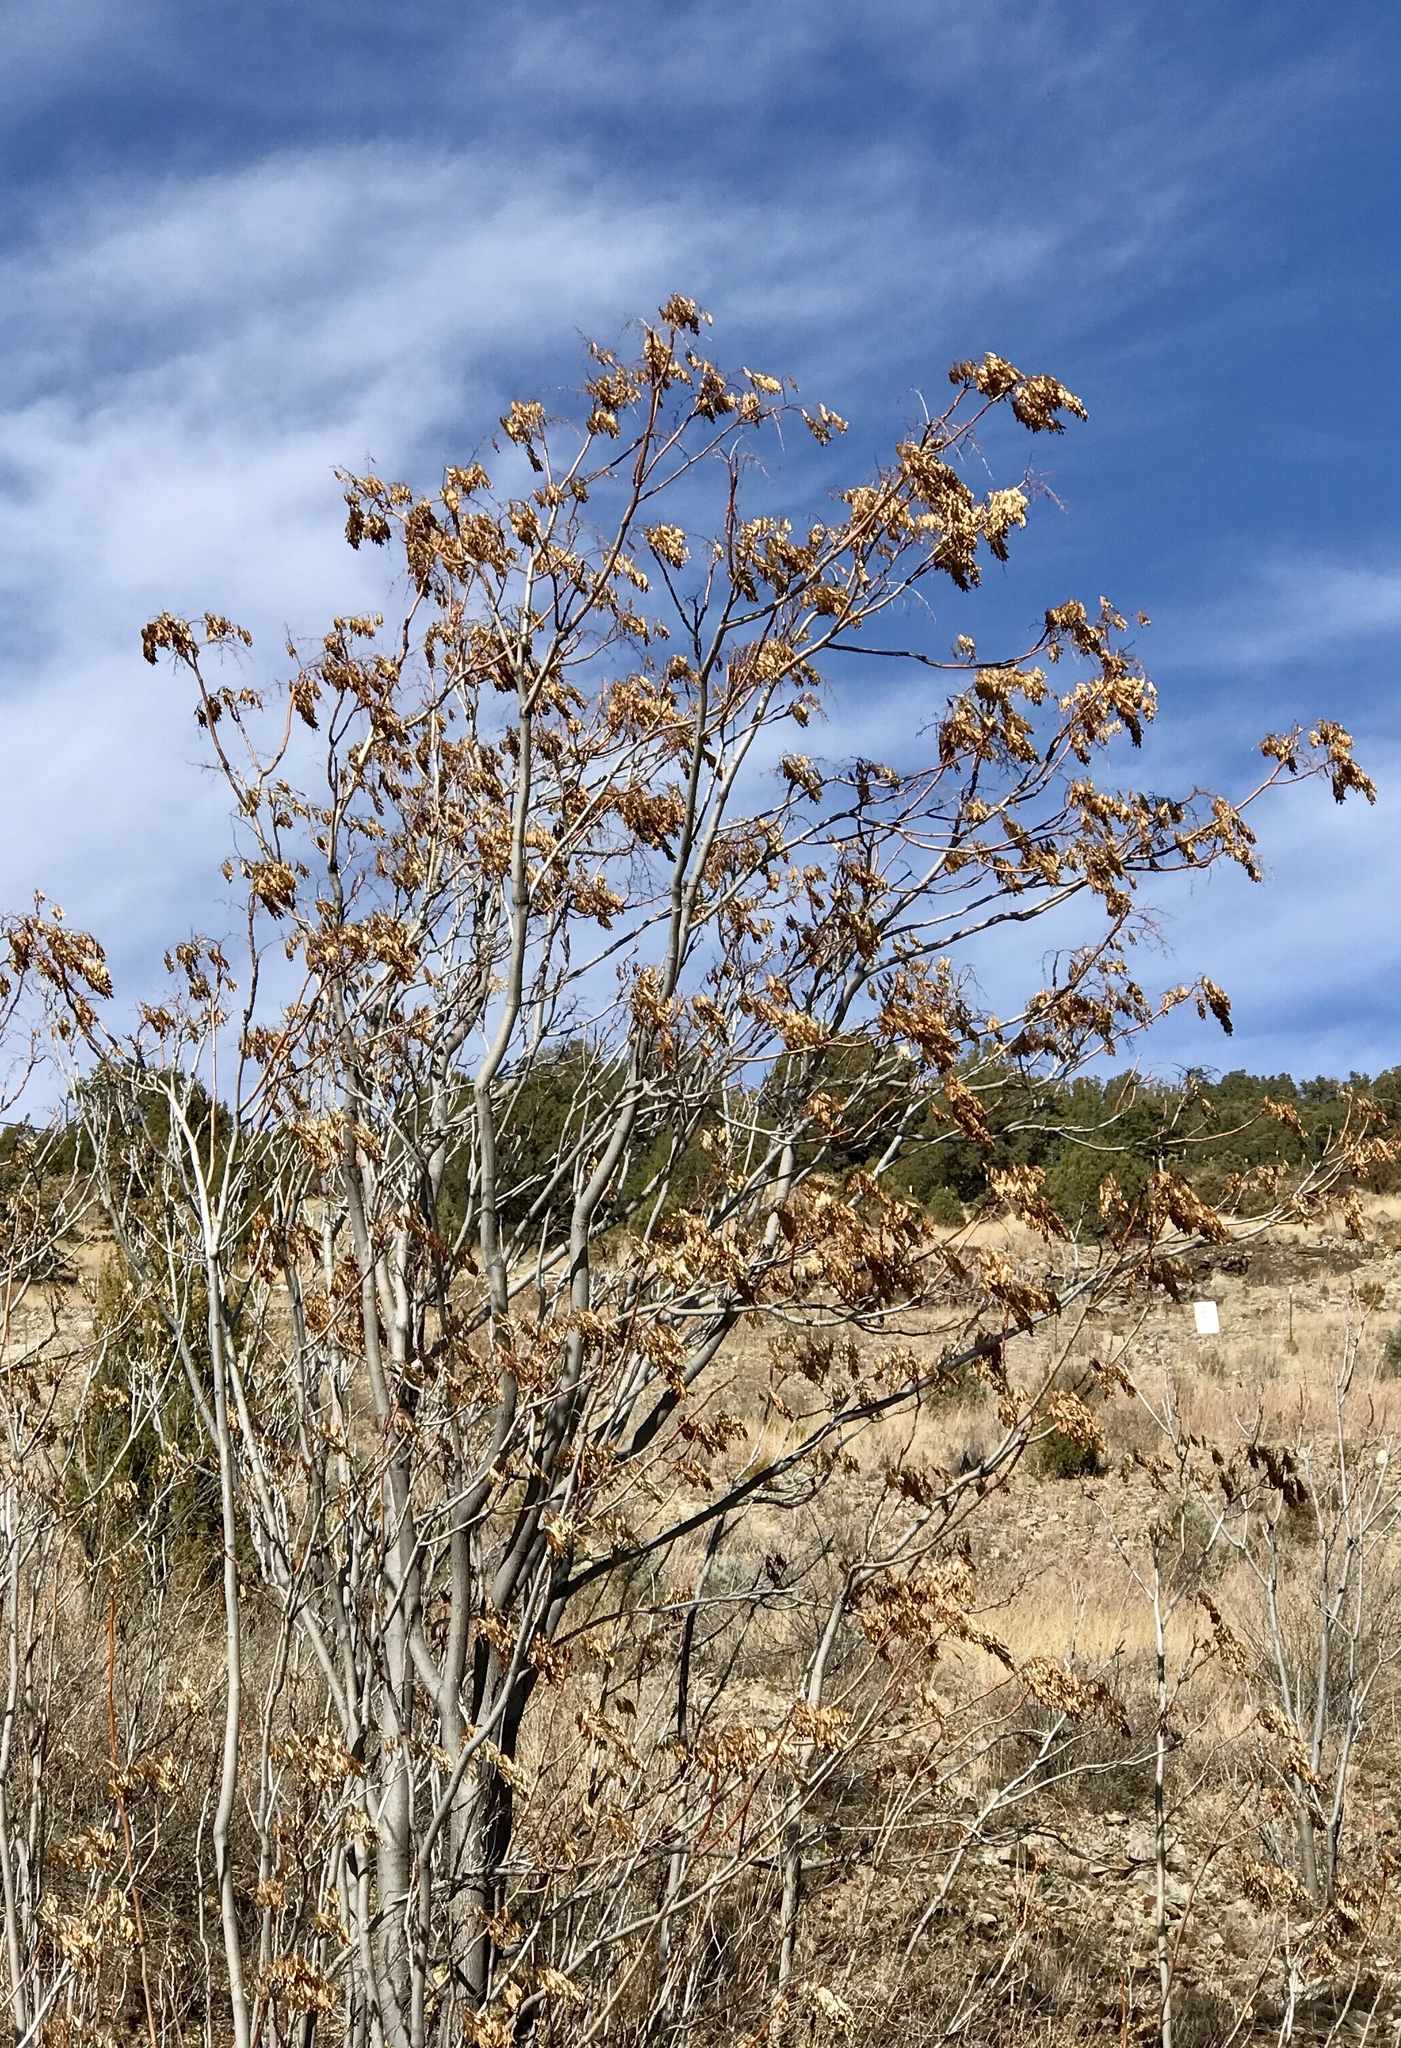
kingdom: Plantae
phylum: Tracheophyta
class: Magnoliopsida
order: Sapindales
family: Simaroubaceae
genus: Ailanthus
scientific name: Ailanthus altissima
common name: Tree-of-heaven
